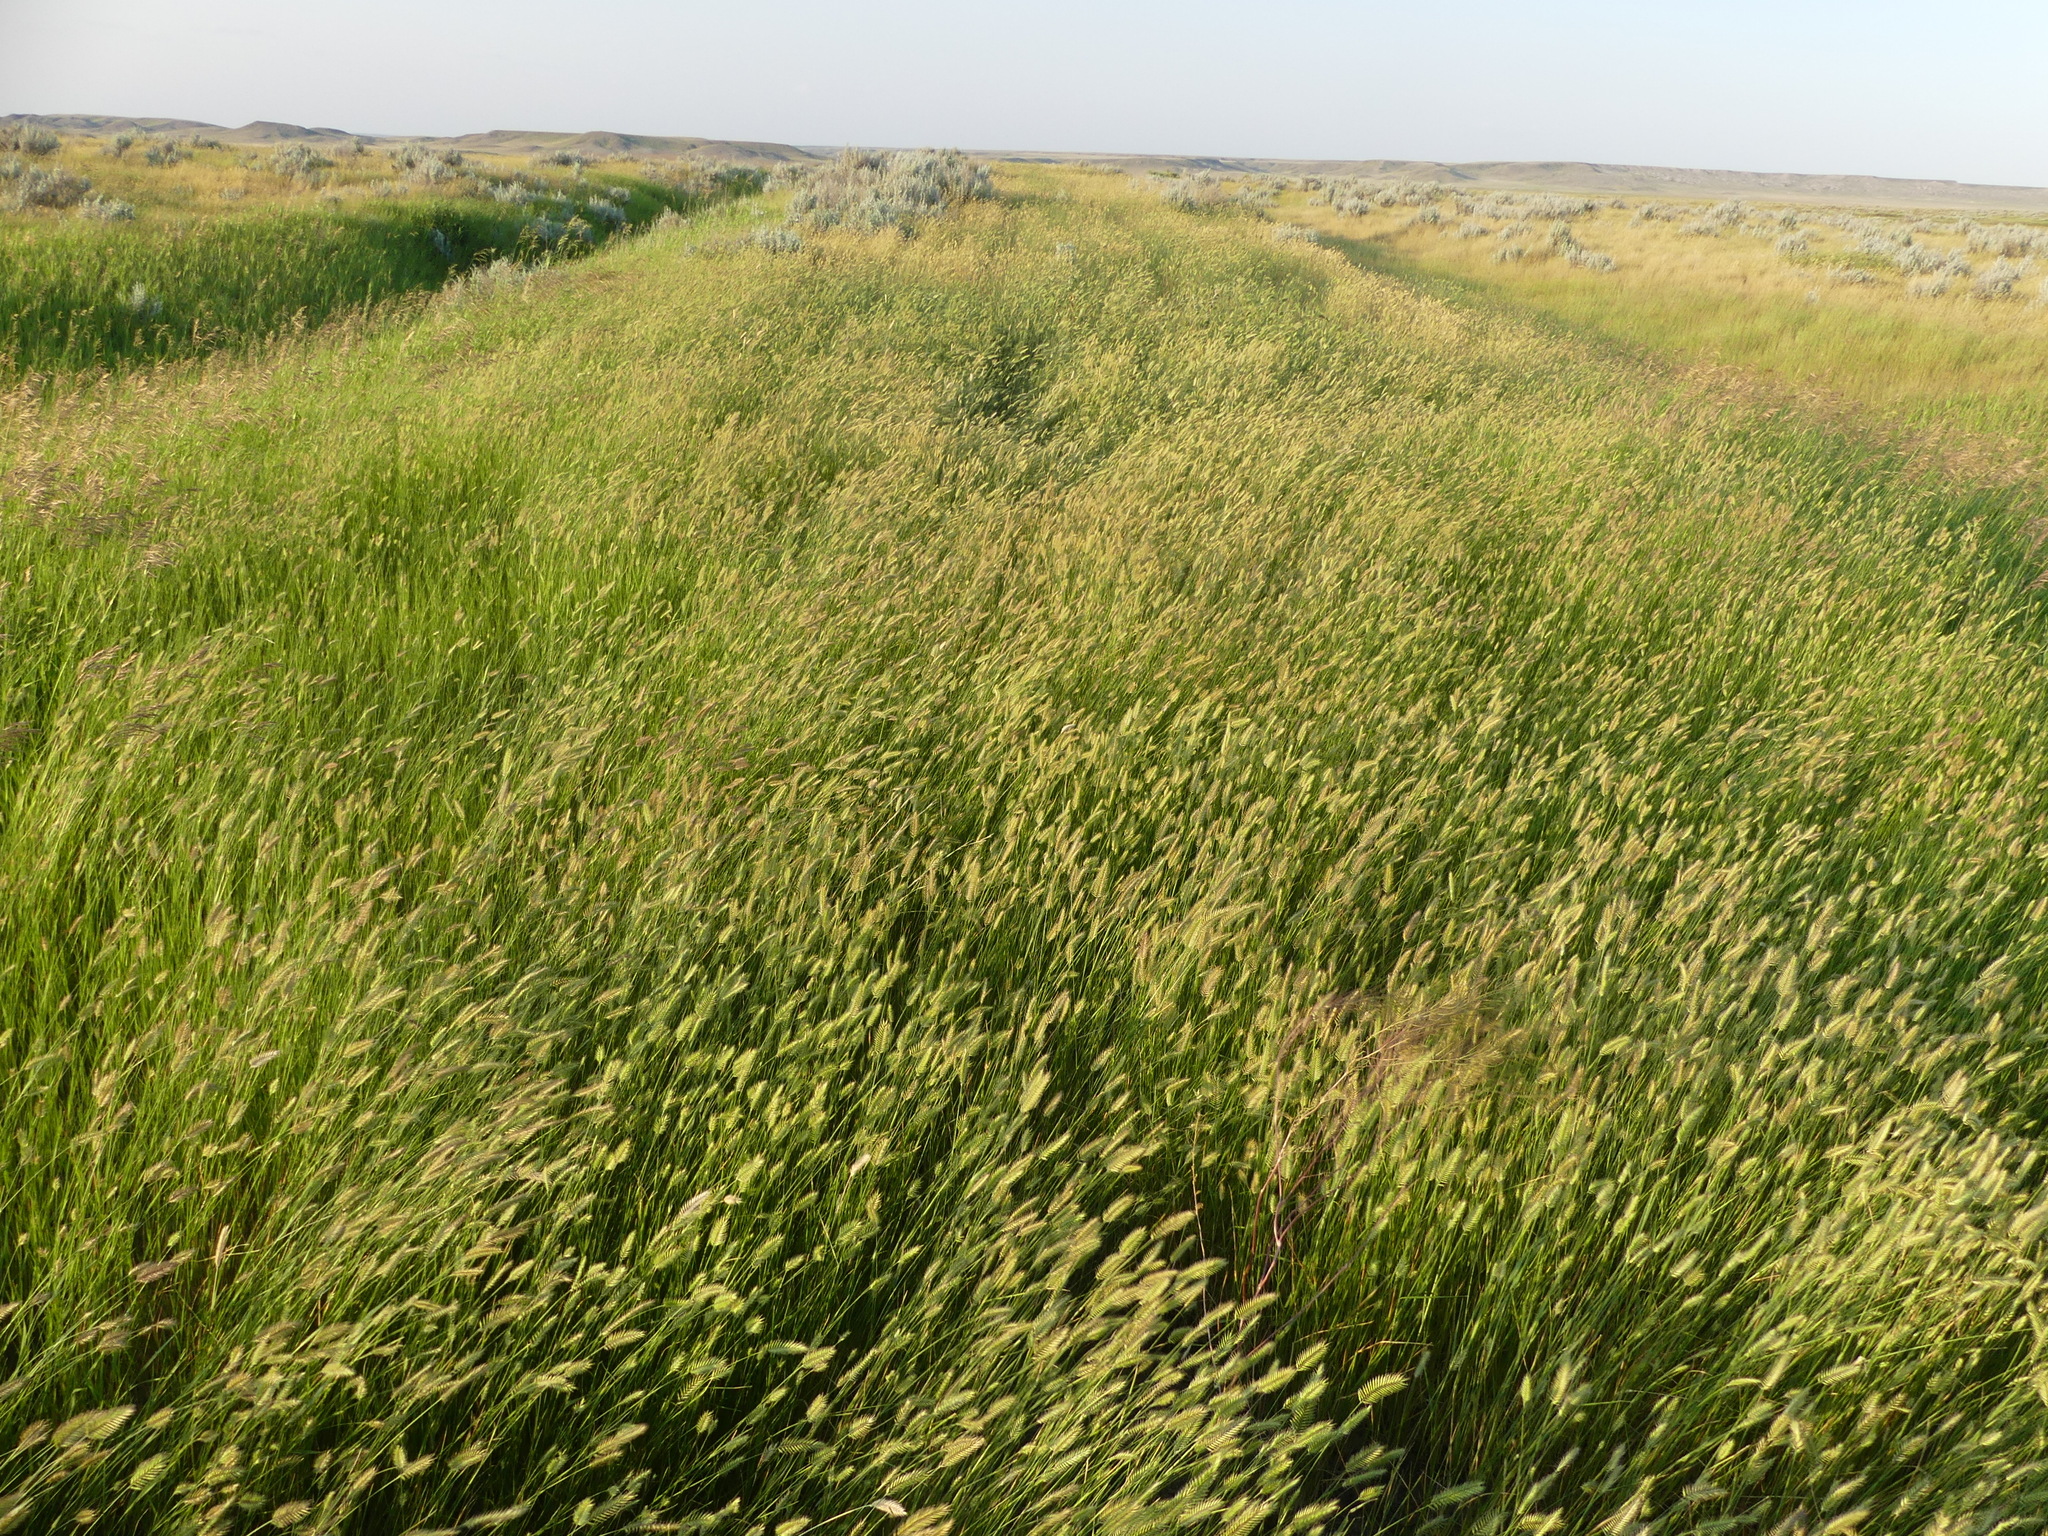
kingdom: Plantae
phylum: Tracheophyta
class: Liliopsida
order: Poales
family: Poaceae
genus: Agropyron
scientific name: Agropyron cristatum
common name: Crested wheatgrass
